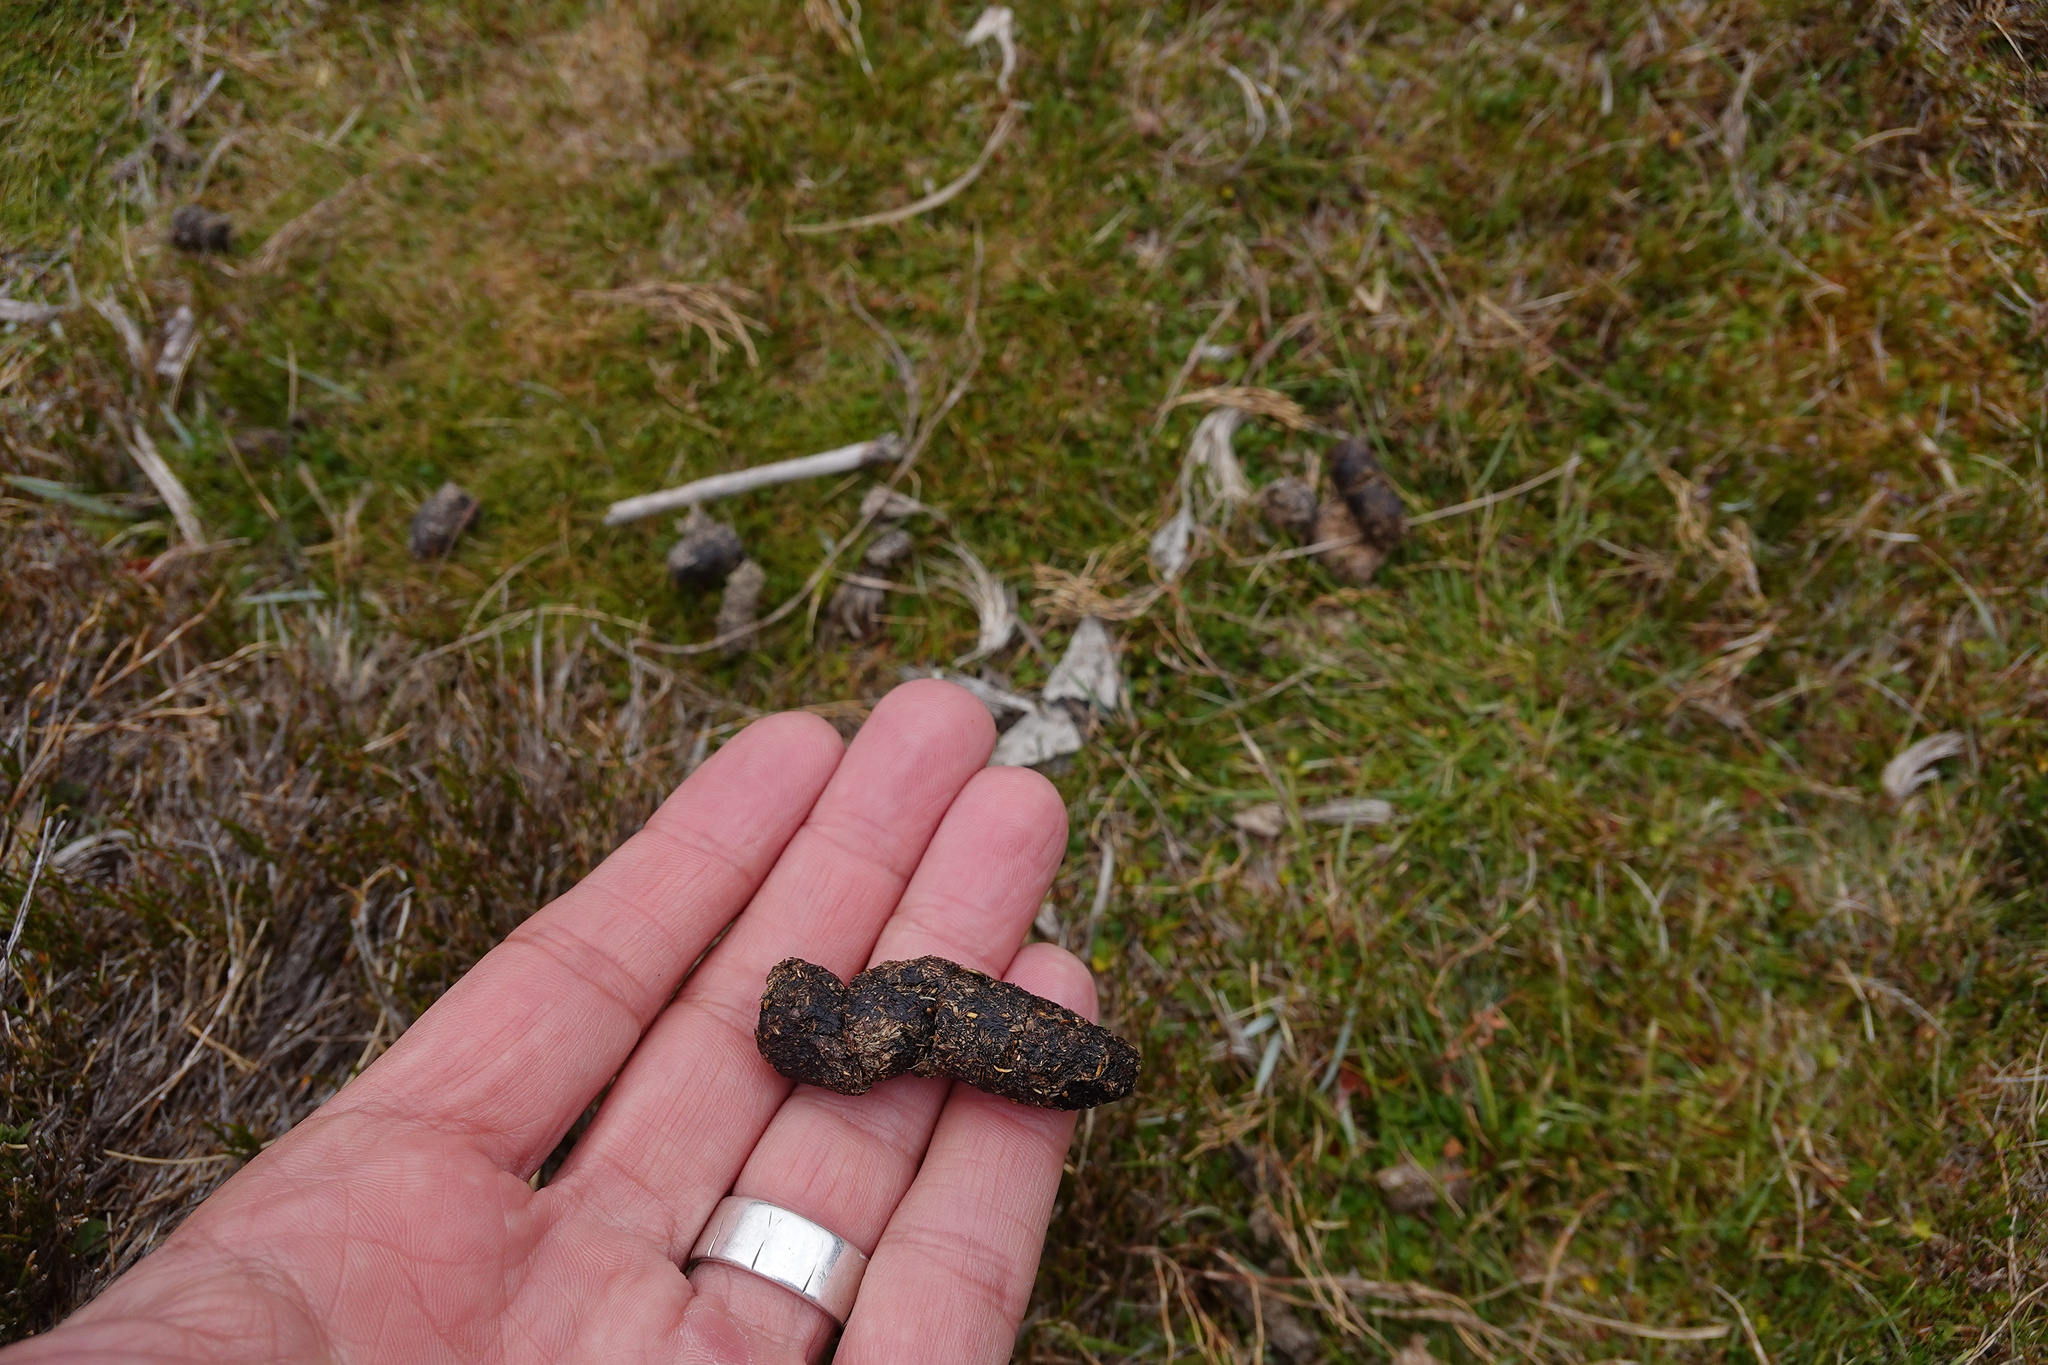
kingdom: Animalia
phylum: Chordata
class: Mammalia
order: Diprotodontia
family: Macropodidae
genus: Thylogale
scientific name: Thylogale billardierii
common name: Tasmanian pademelon
